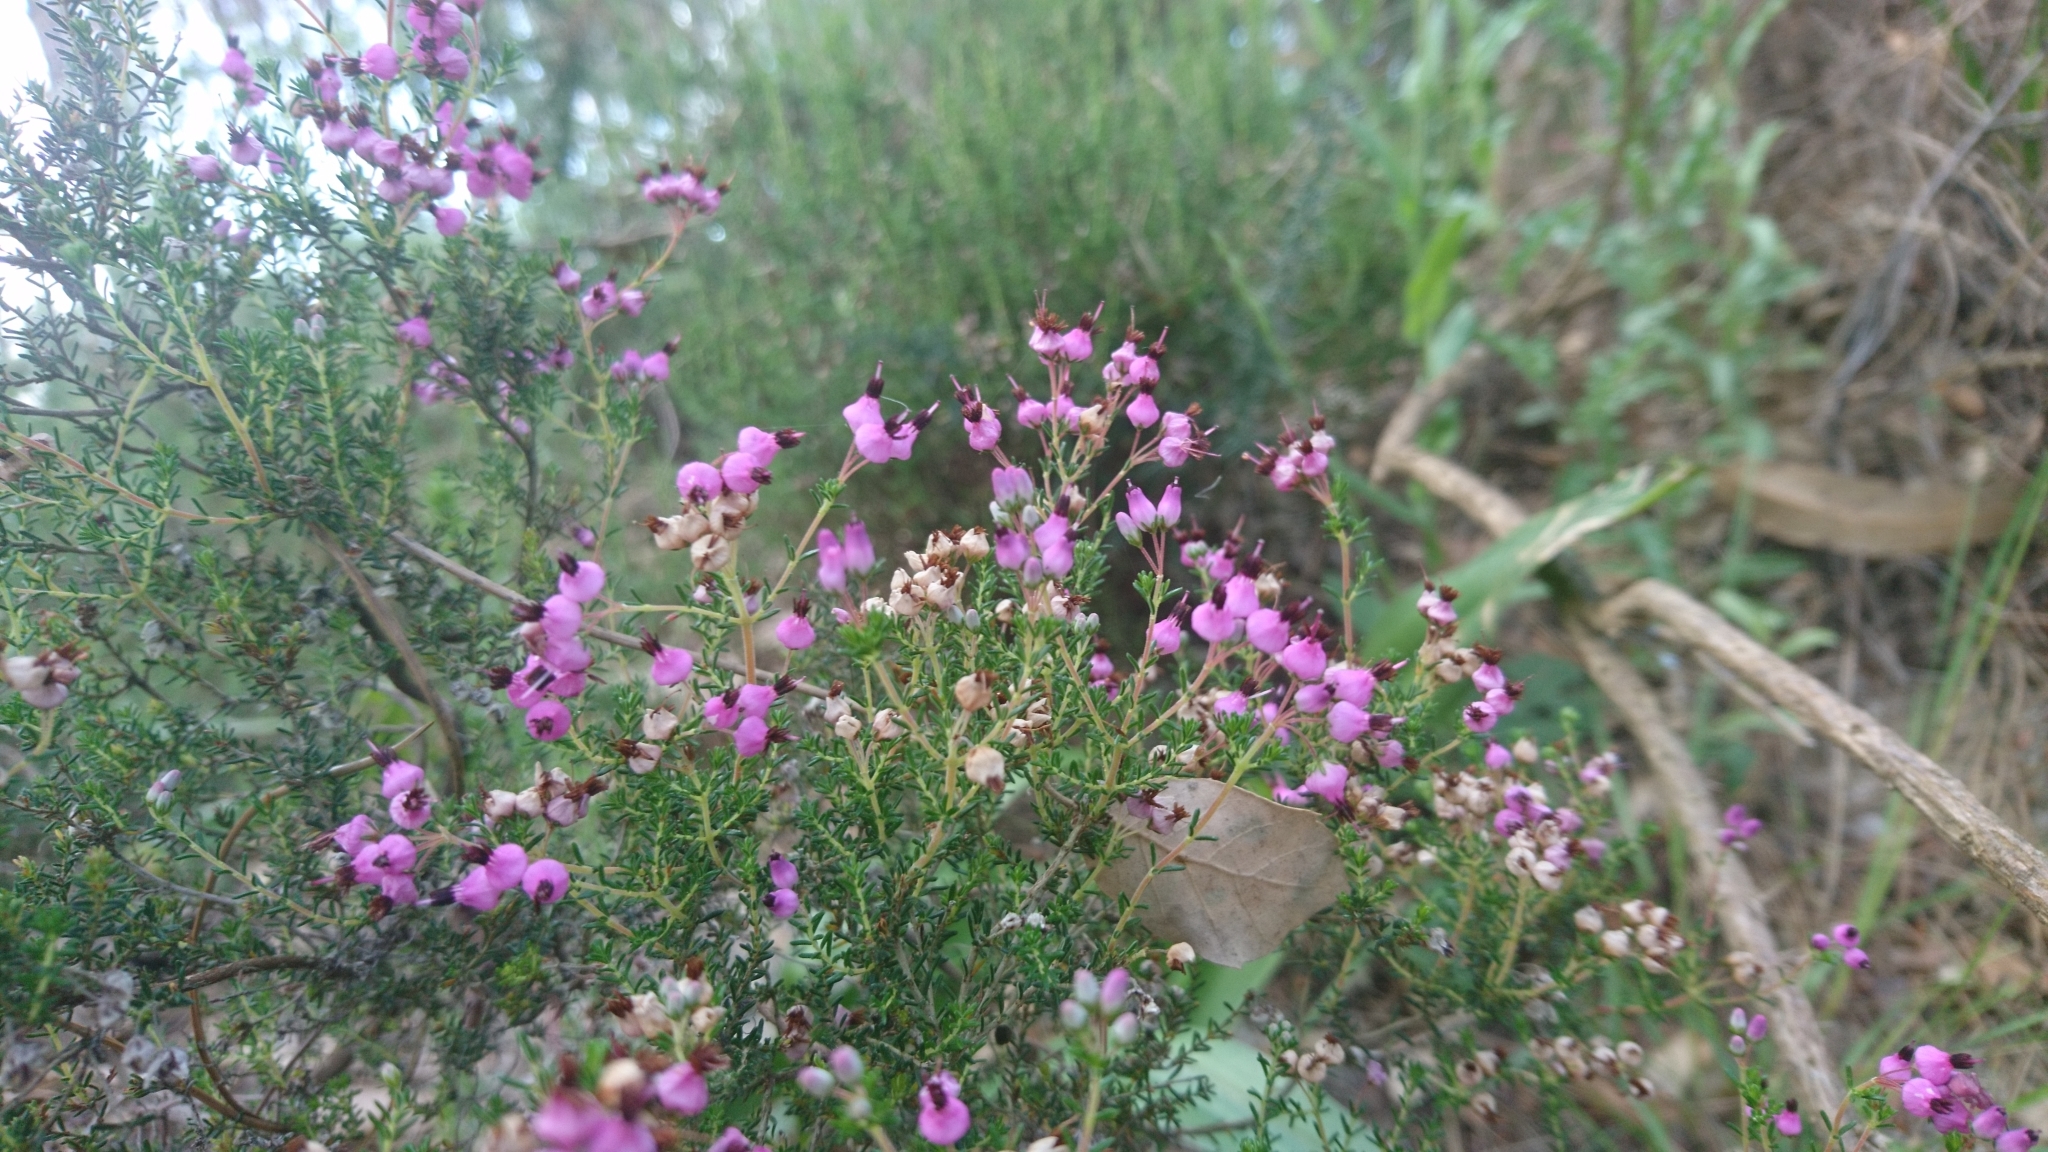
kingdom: Plantae
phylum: Tracheophyta
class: Magnoliopsida
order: Ericales
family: Ericaceae
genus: Erica
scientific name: Erica umbellata
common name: Dwarf spanish heath
